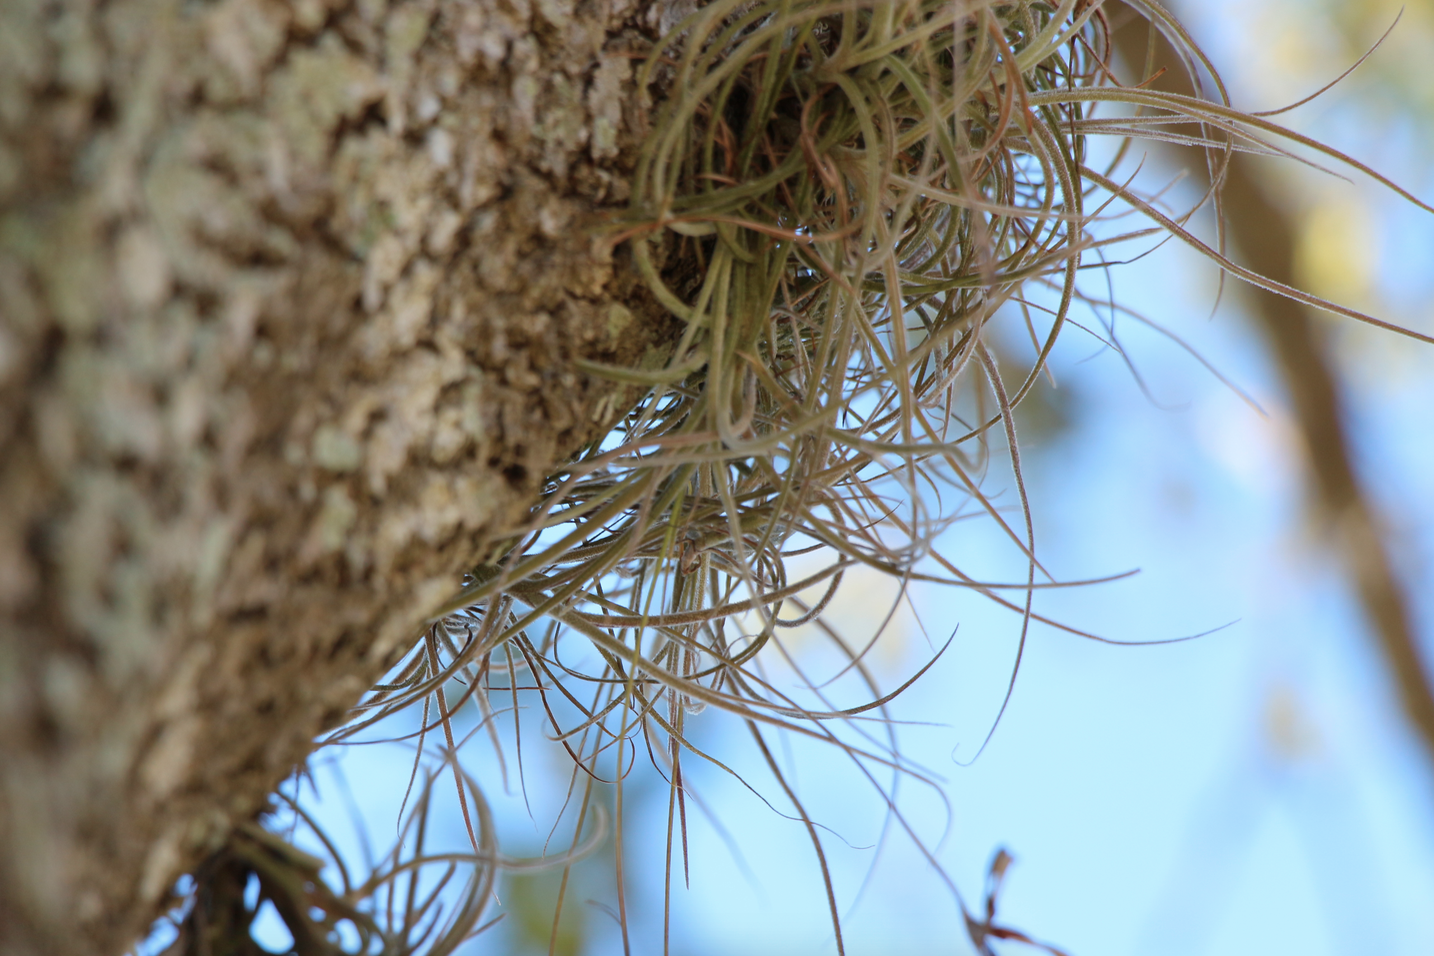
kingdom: Plantae
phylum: Tracheophyta
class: Liliopsida
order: Poales
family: Bromeliaceae
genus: Tillandsia
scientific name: Tillandsia recurvata
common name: Small ballmoss
